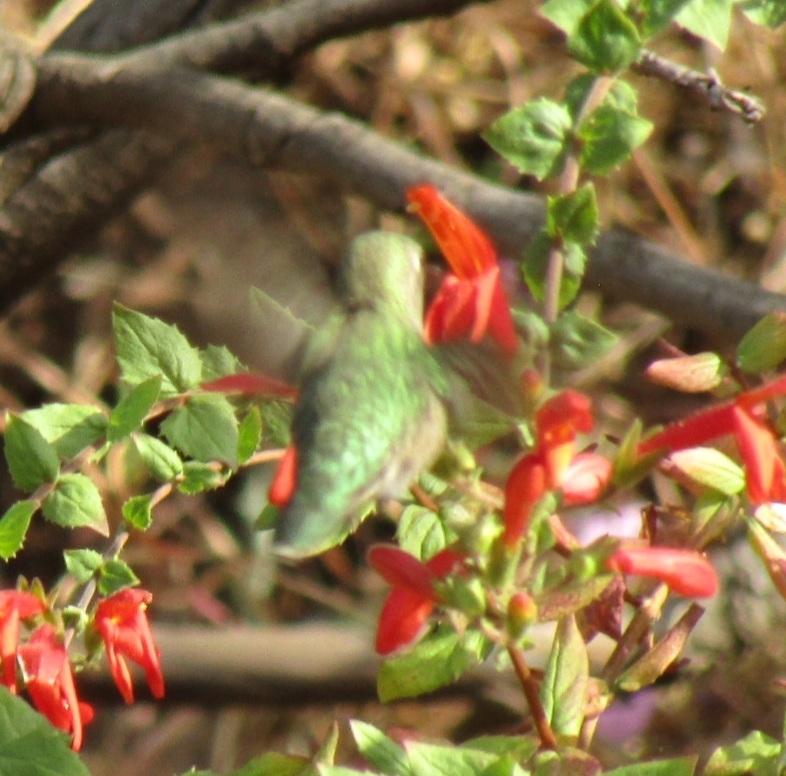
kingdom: Animalia
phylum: Chordata
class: Aves
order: Apodiformes
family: Trochilidae
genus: Calypte
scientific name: Calypte anna
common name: Anna's hummingbird
